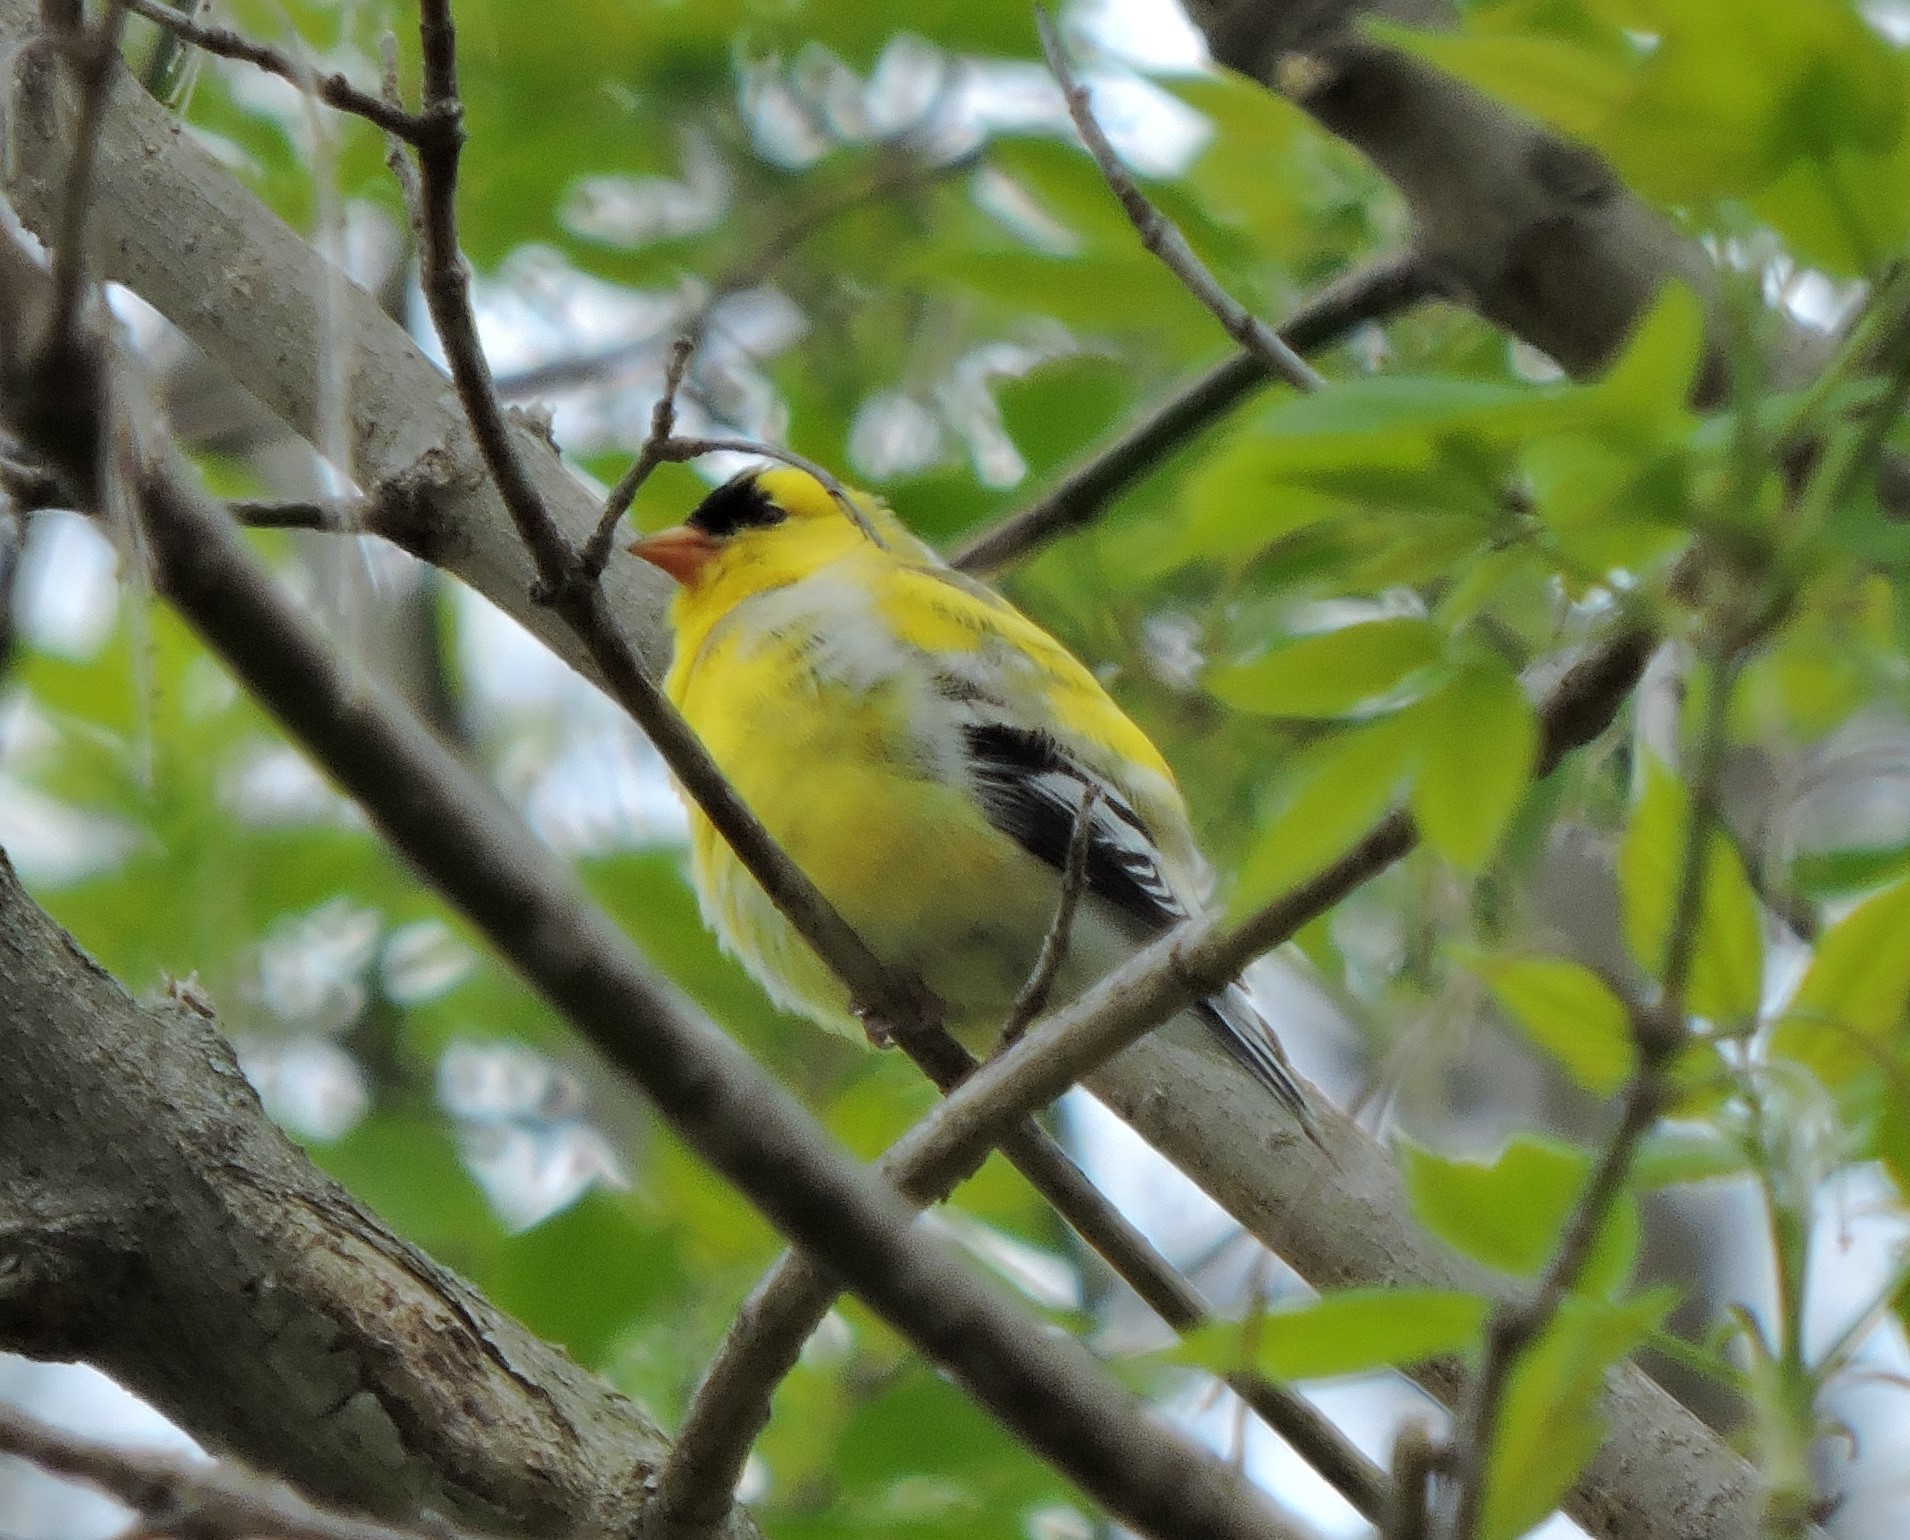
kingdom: Animalia
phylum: Chordata
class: Aves
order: Passeriformes
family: Fringillidae
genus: Spinus
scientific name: Spinus tristis
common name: American goldfinch
